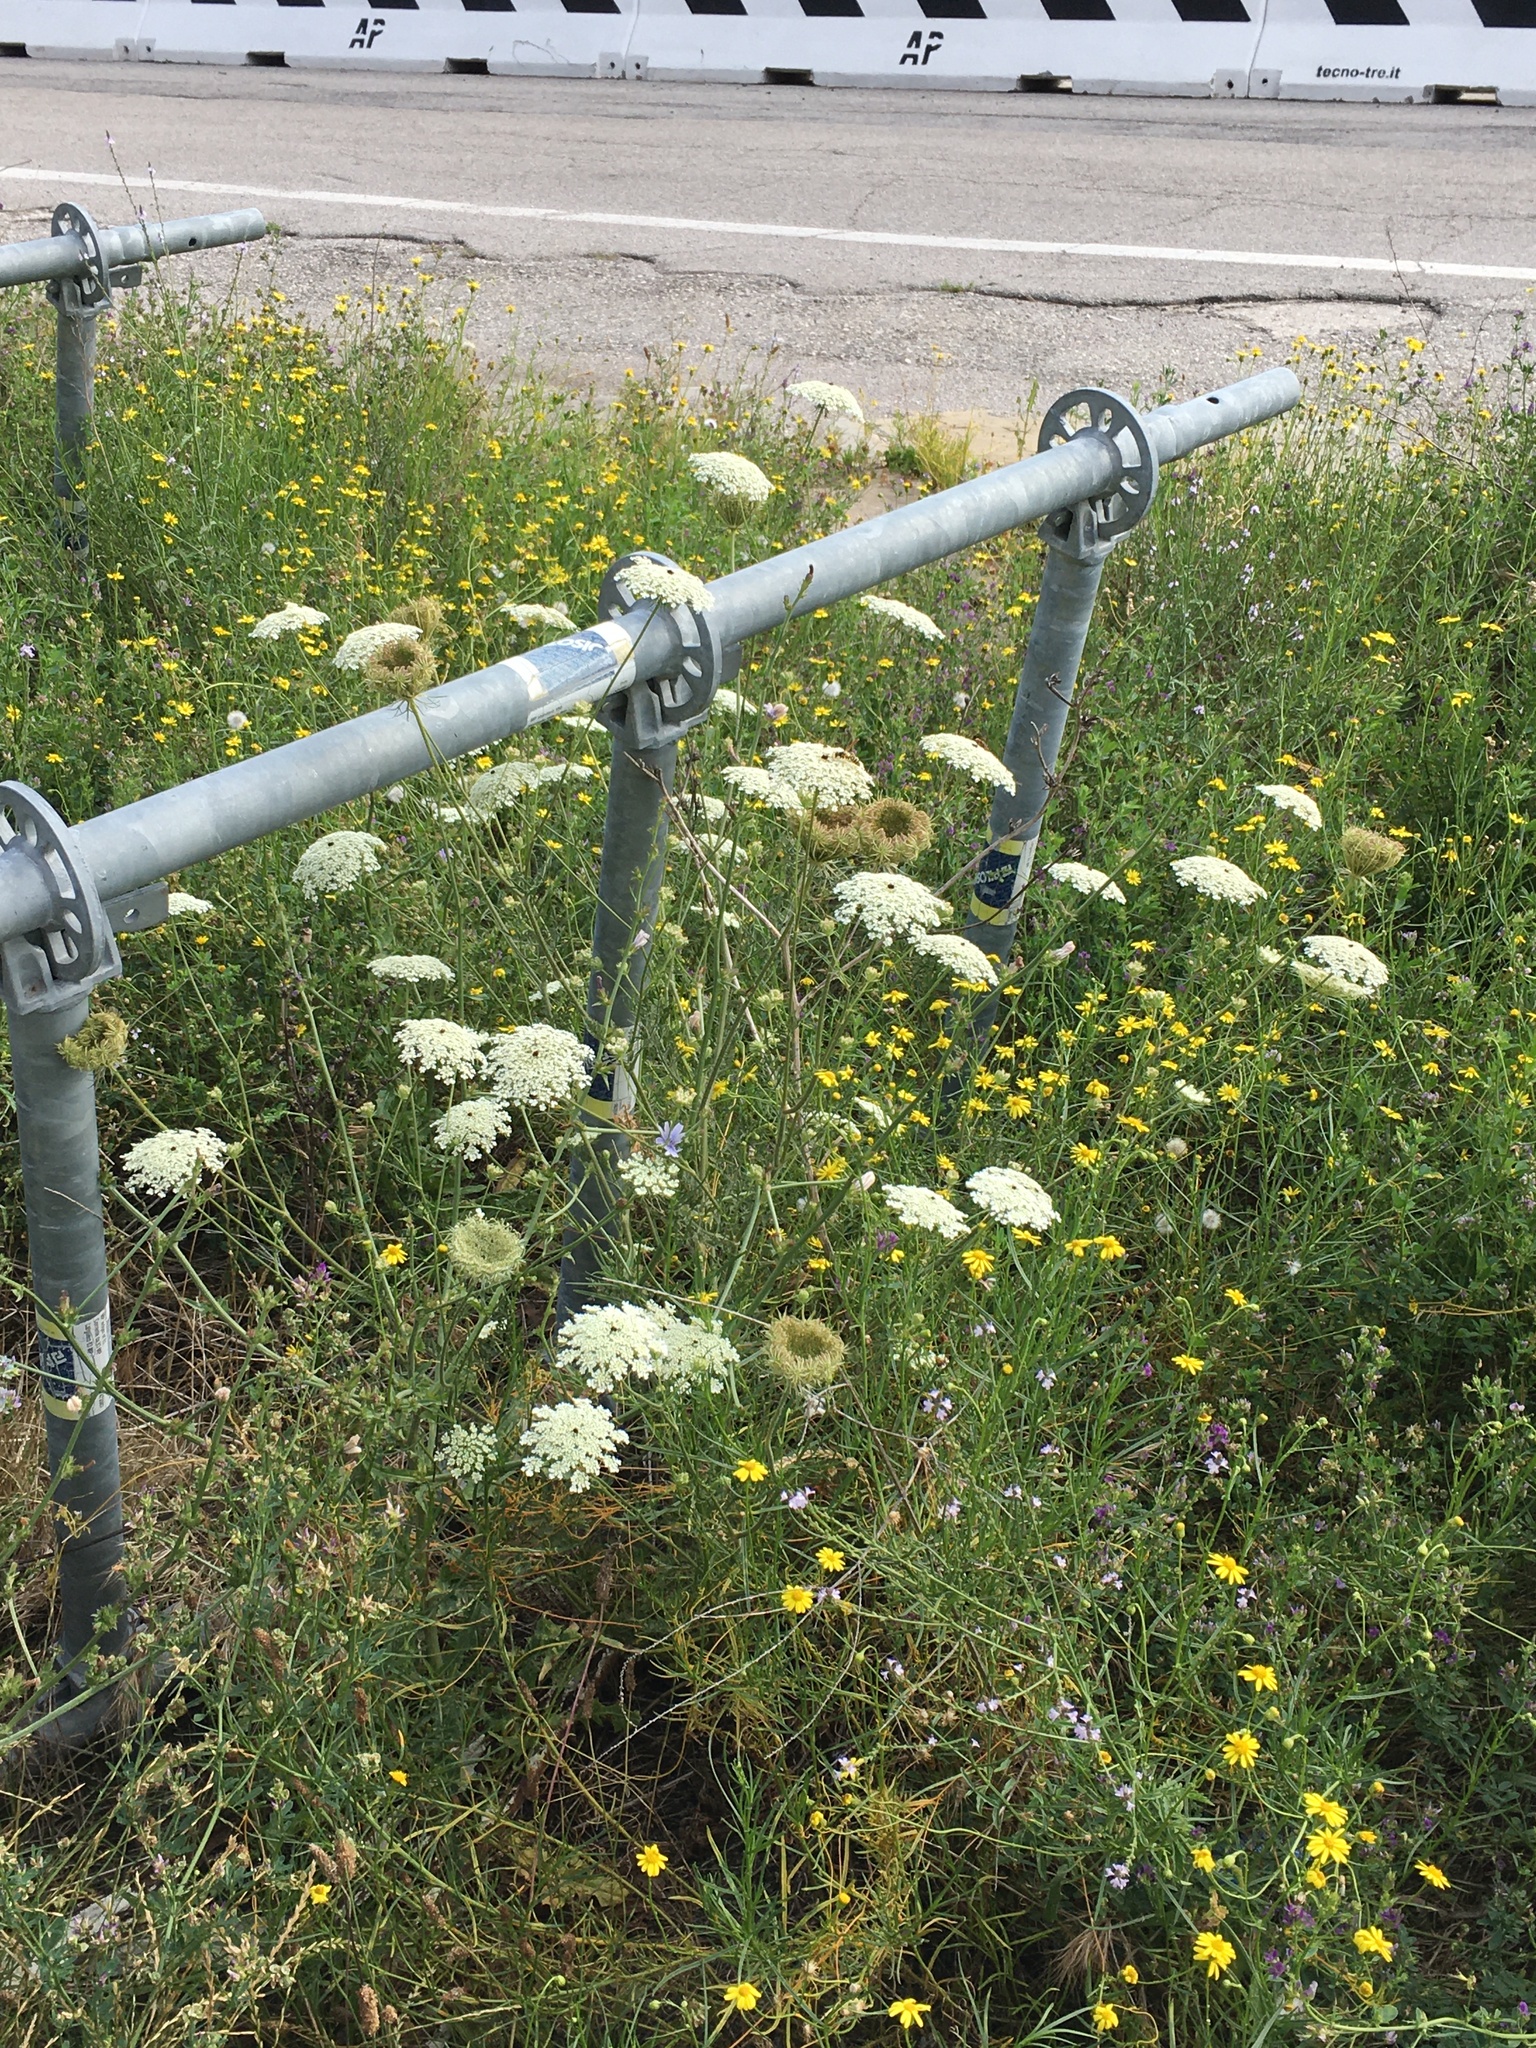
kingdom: Plantae
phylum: Tracheophyta
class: Magnoliopsida
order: Apiales
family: Apiaceae
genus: Daucus
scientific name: Daucus carota
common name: Wild carrot
